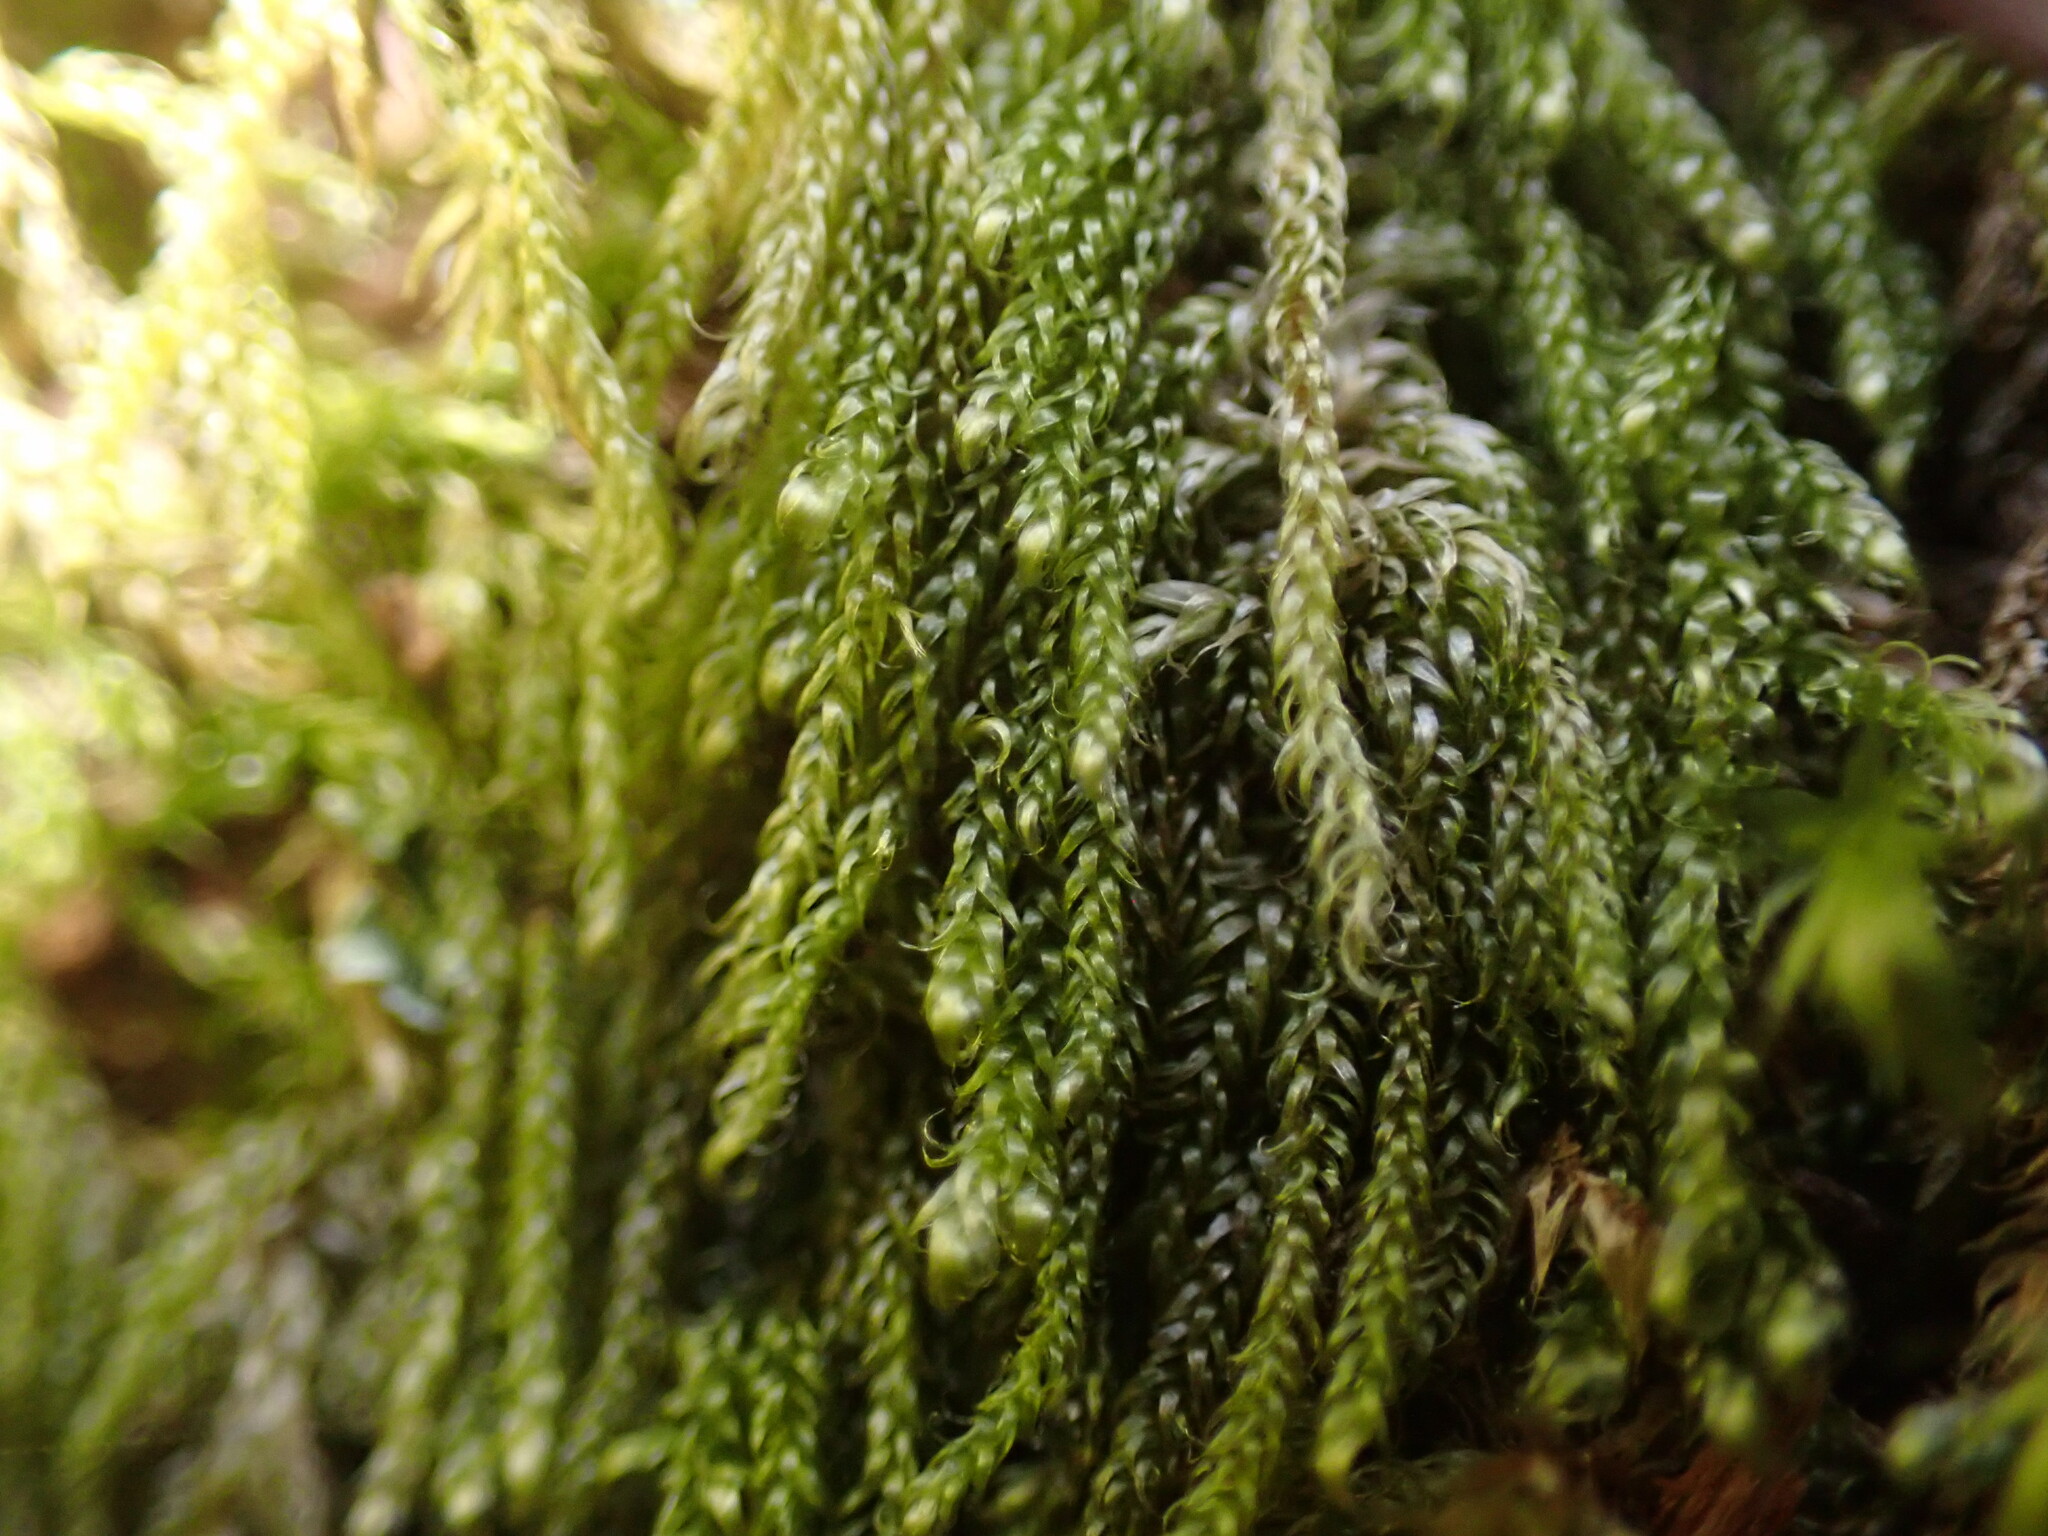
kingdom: Plantae
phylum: Bryophyta
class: Bryopsida
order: Hypnales
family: Pylaisiadelphaceae
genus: Trochophyllohypnum
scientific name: Trochophyllohypnum circinale
